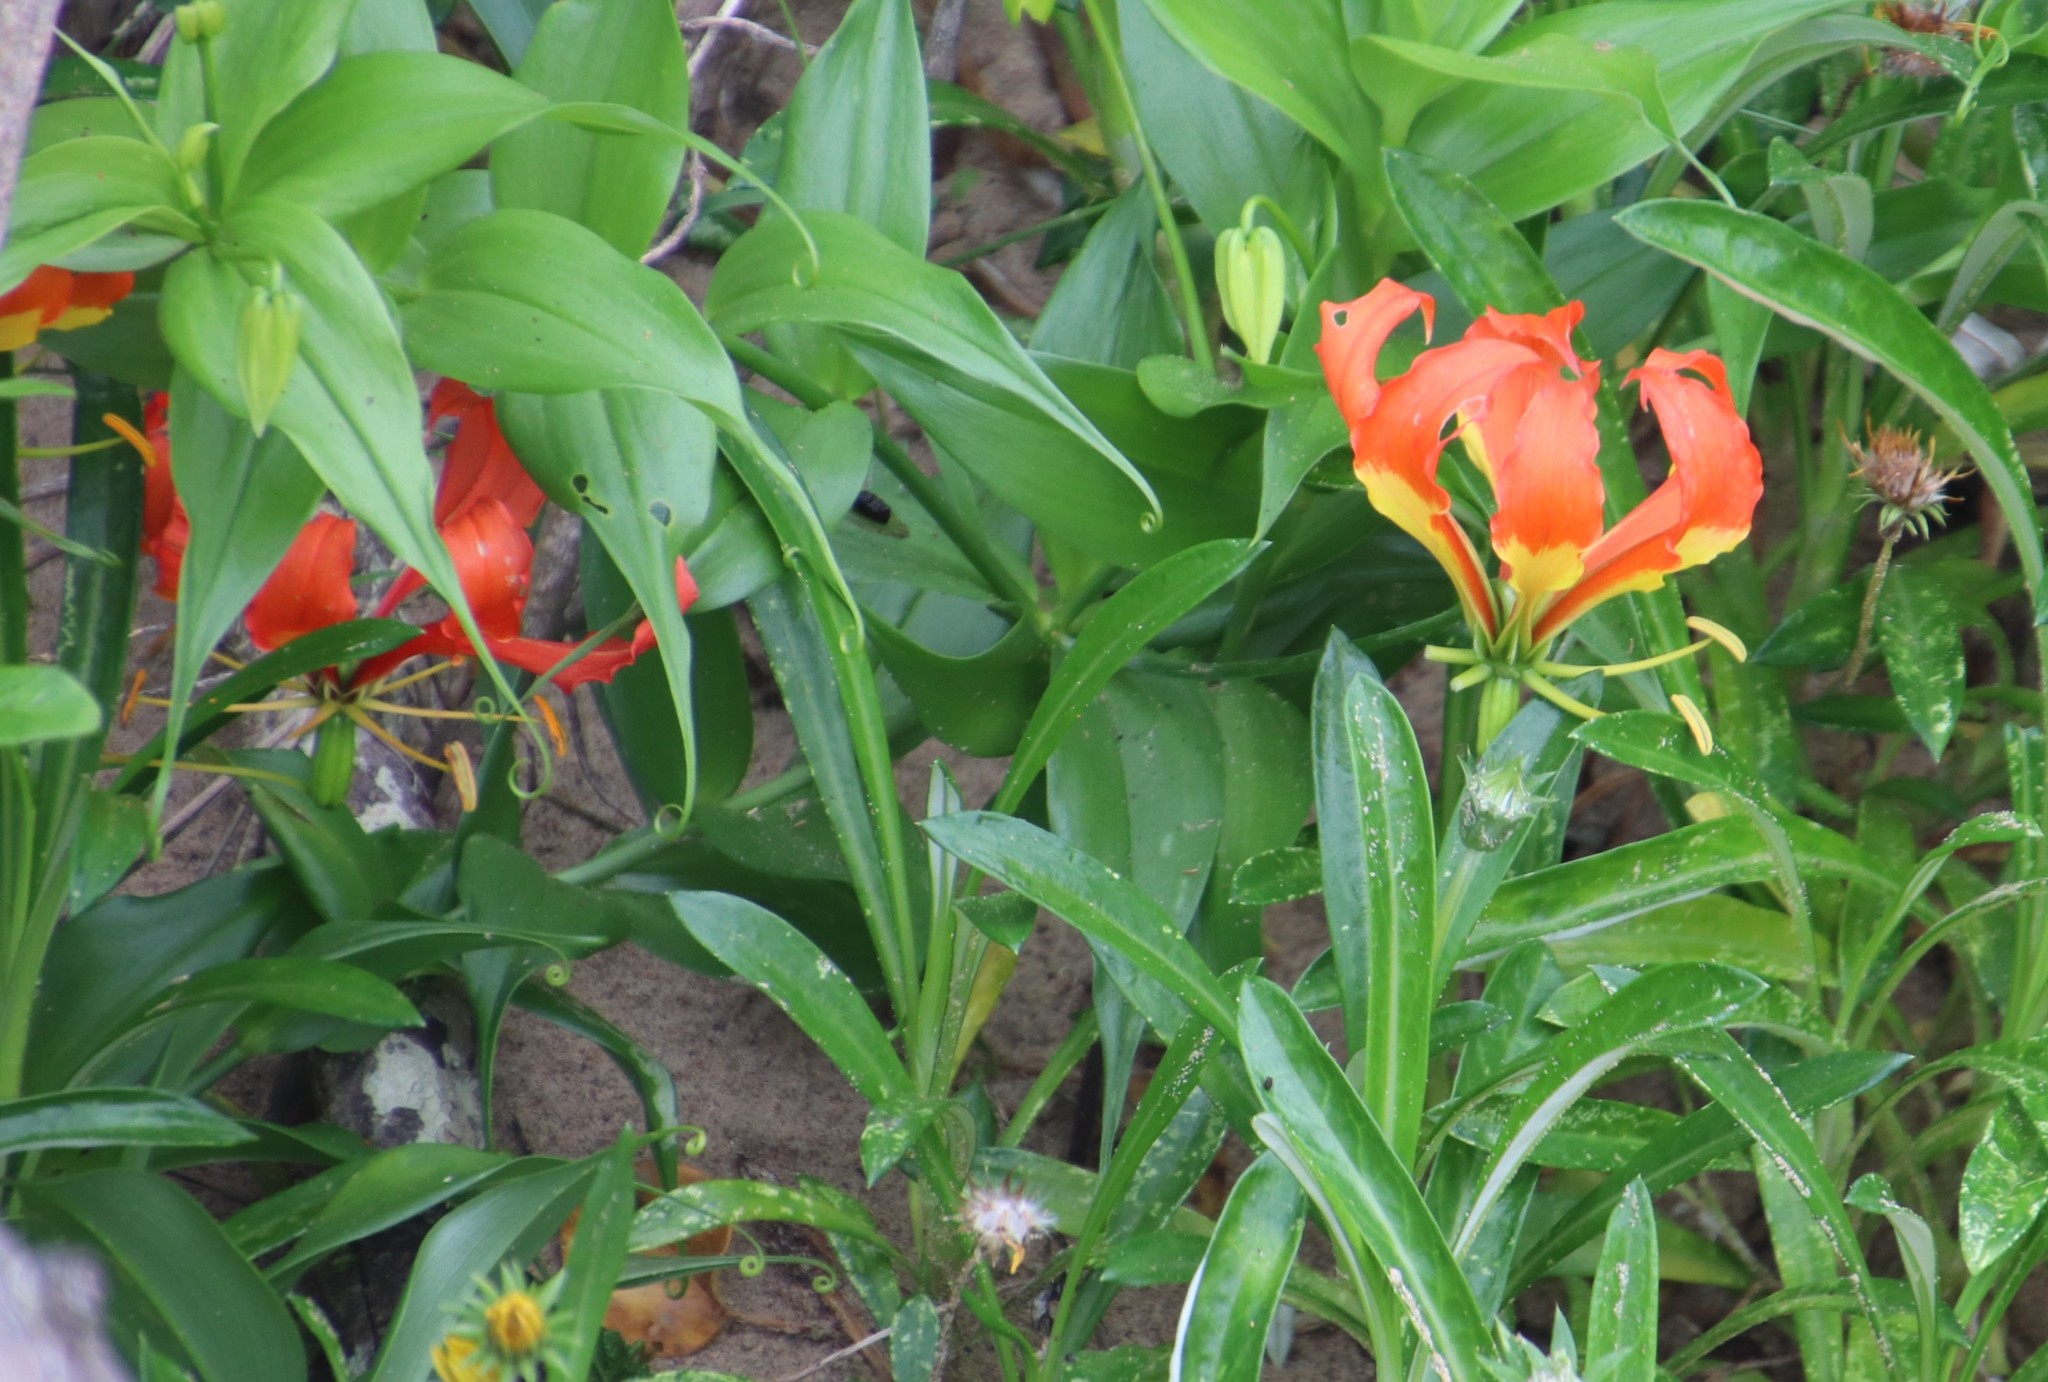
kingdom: Plantae
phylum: Tracheophyta
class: Liliopsida
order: Liliales
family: Colchicaceae
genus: Gloriosa
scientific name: Gloriosa superba
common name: Flame lily
